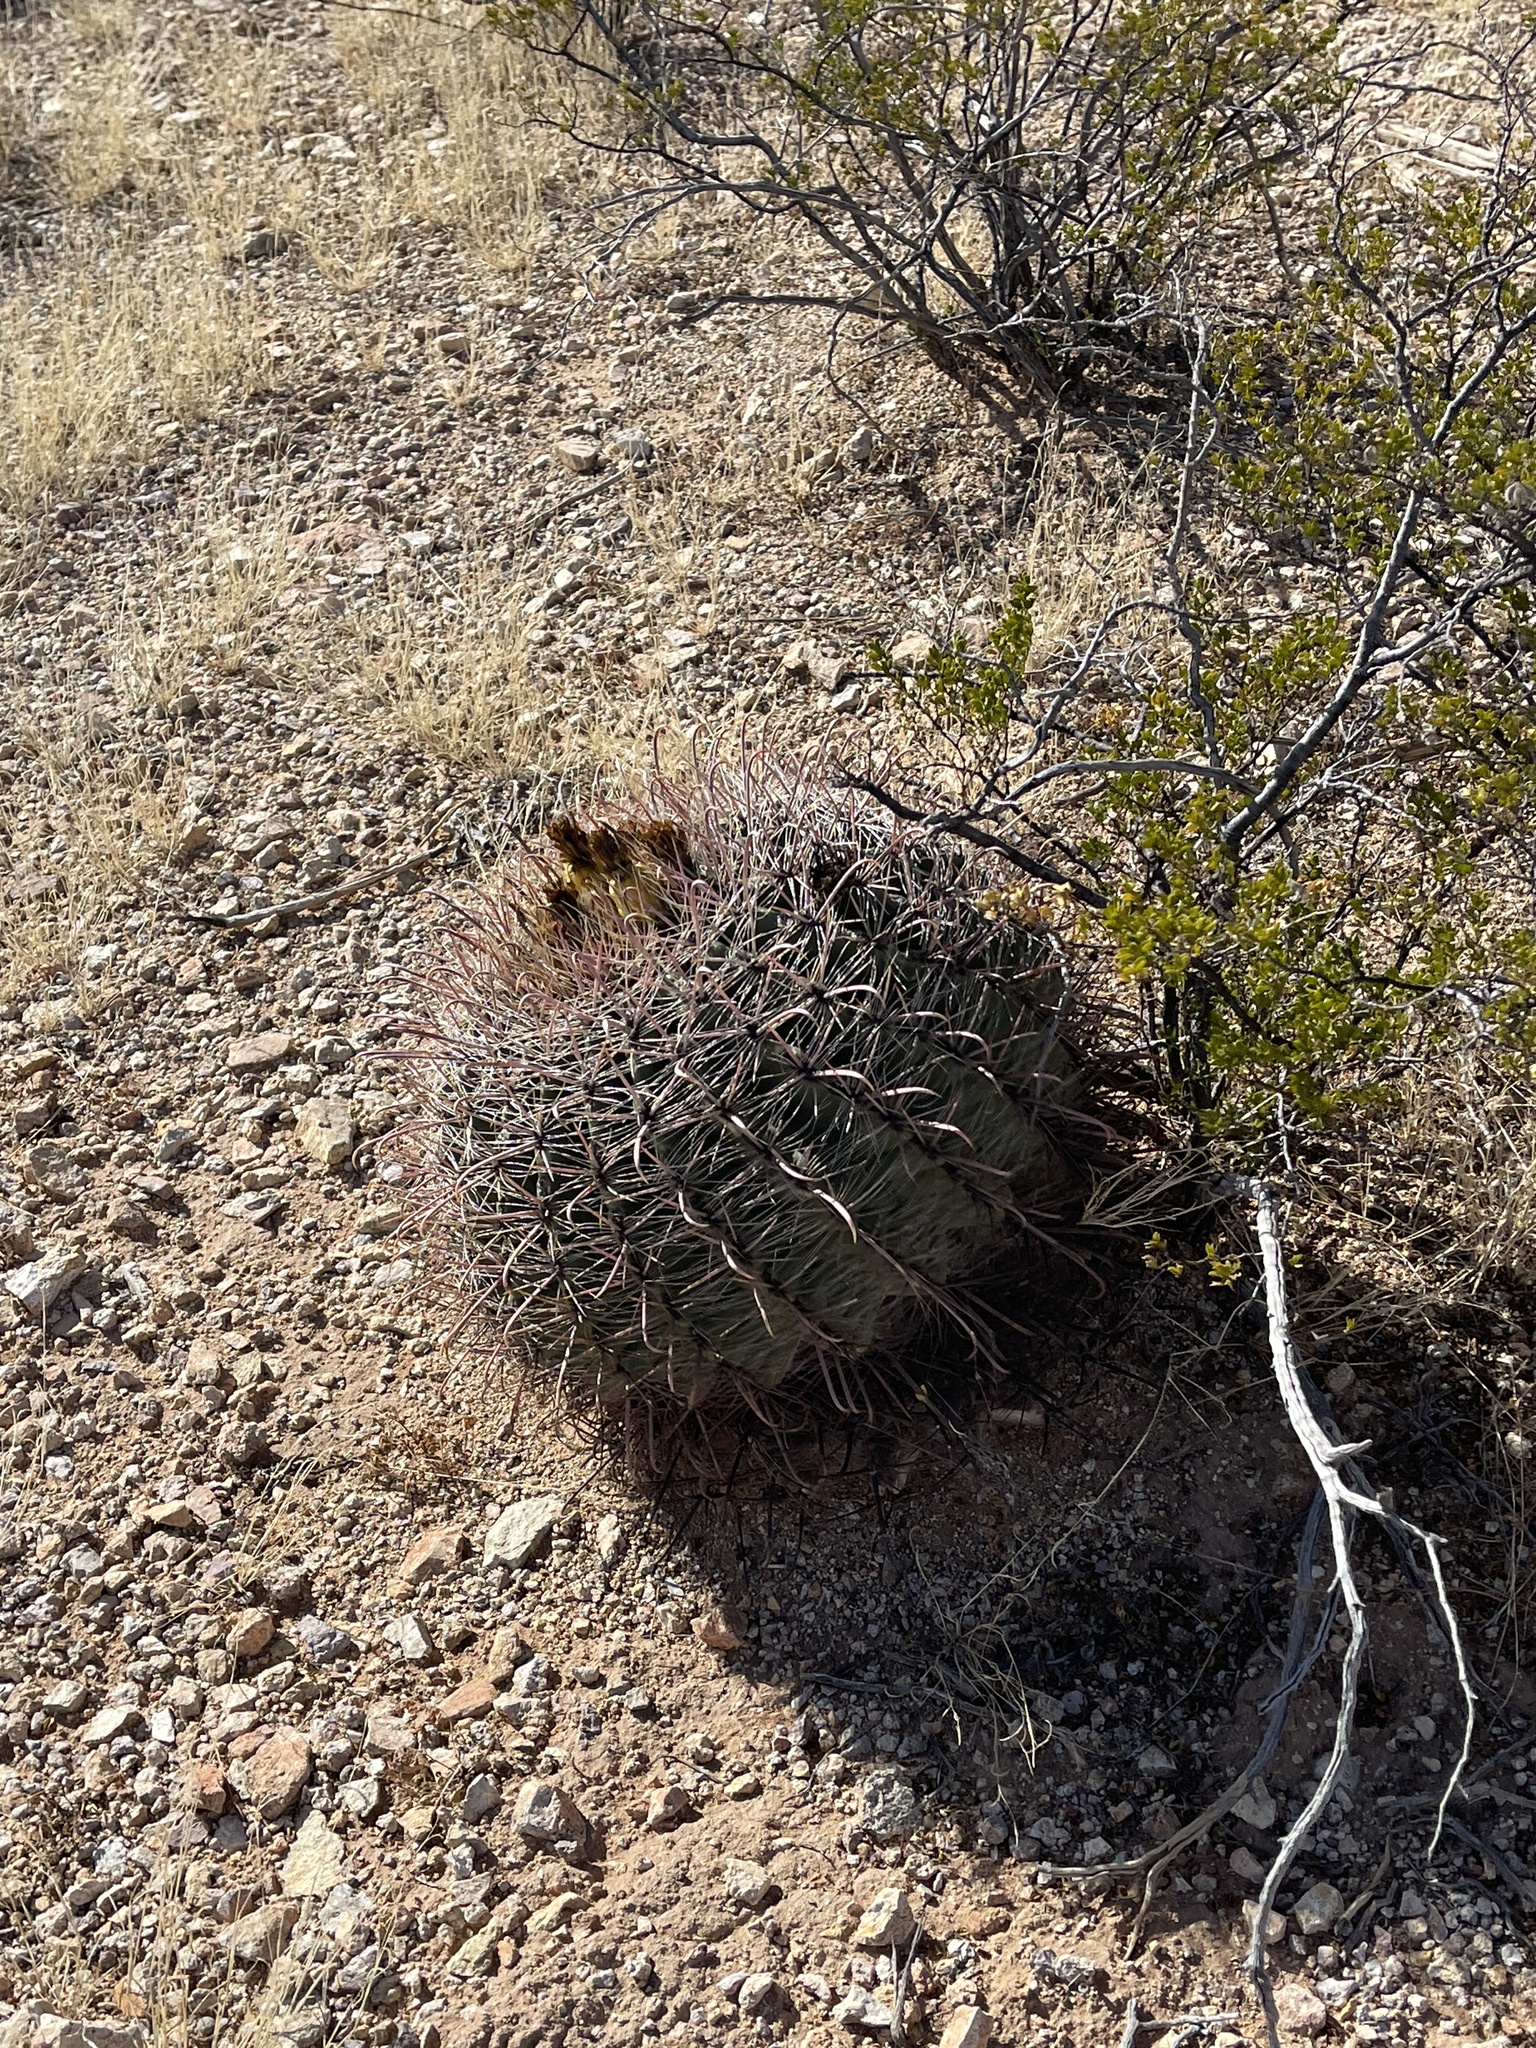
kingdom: Plantae
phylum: Tracheophyta
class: Magnoliopsida
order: Caryophyllales
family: Cactaceae
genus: Ferocactus
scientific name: Ferocactus wislizeni
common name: Candy barrel cactus
